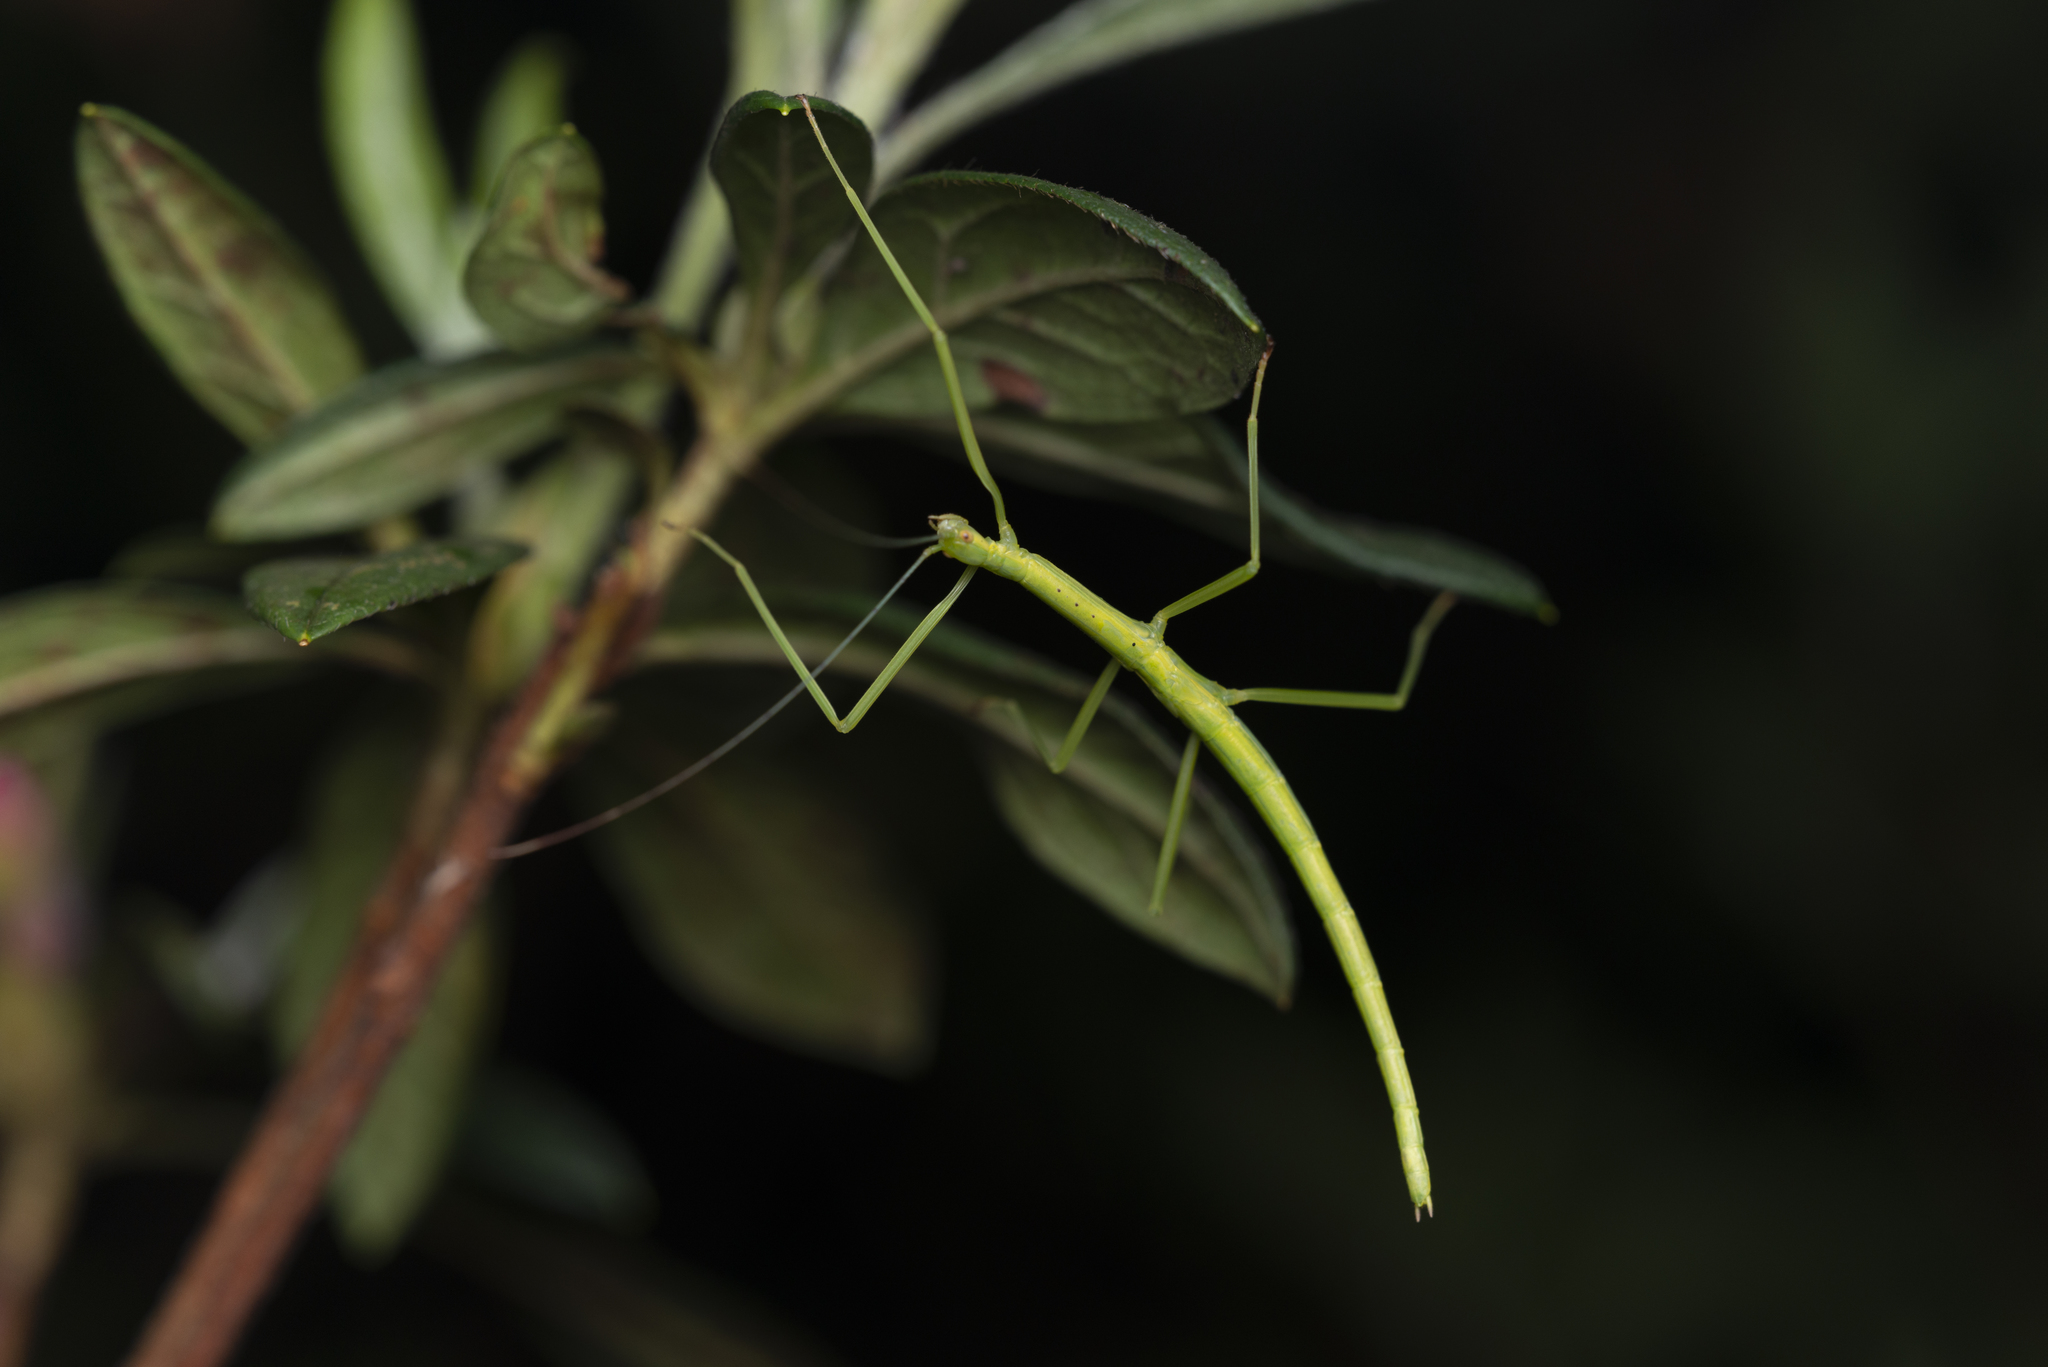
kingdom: Animalia
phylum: Arthropoda
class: Insecta
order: Phasmida
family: Lonchodidae
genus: Huananphasma
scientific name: Huananphasma amicum
